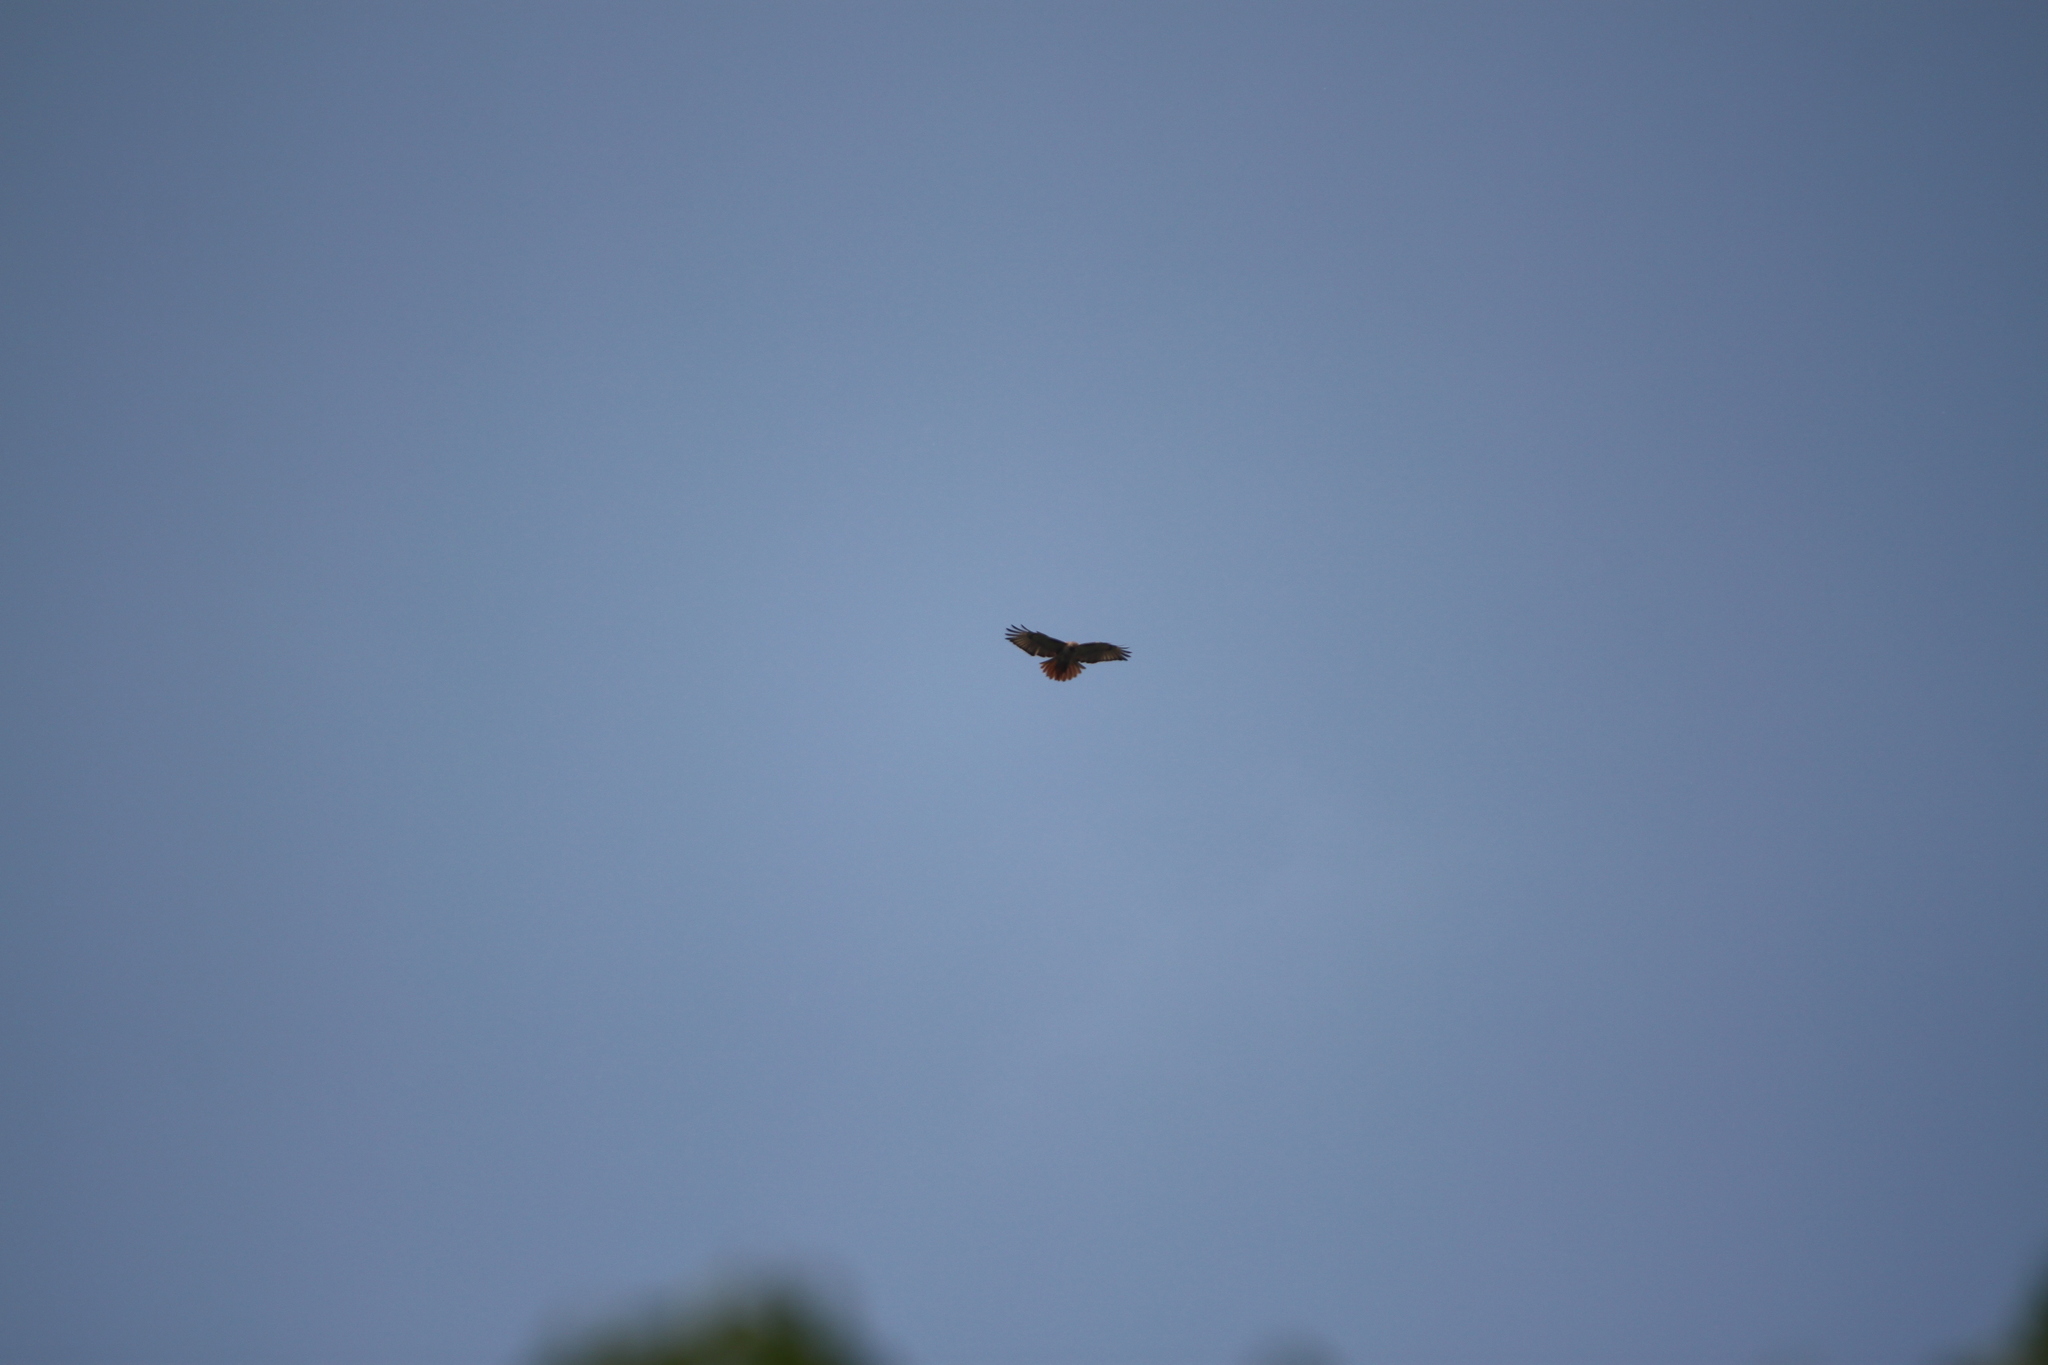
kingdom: Animalia
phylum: Chordata
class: Aves
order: Accipitriformes
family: Accipitridae
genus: Buteo
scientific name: Buteo jamaicensis
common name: Red-tailed hawk
